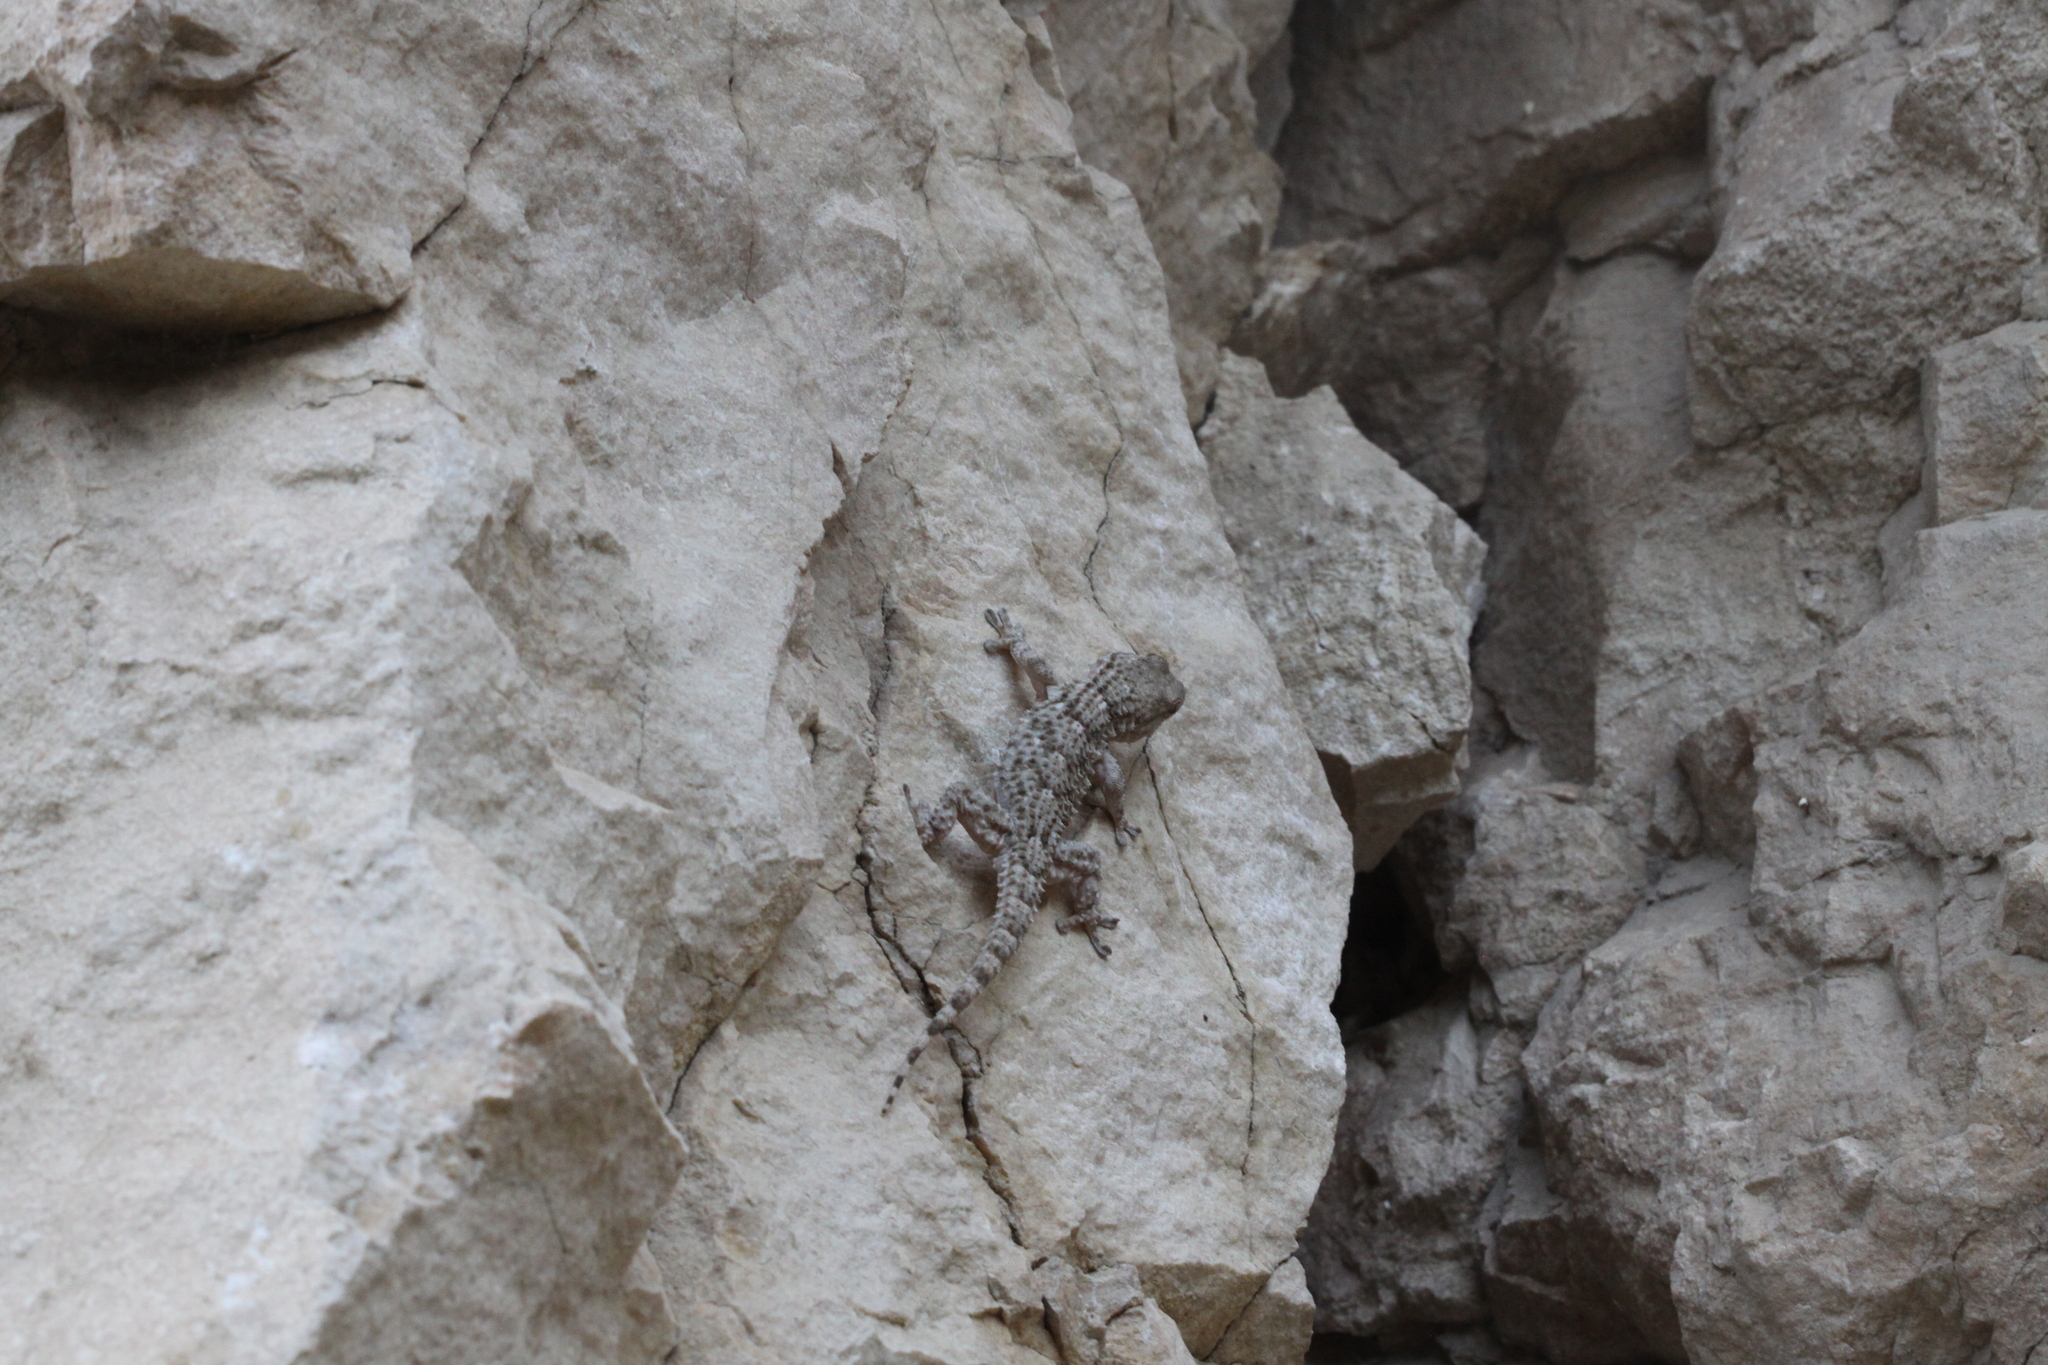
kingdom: Animalia
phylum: Chordata
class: Squamata
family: Phyllodactylidae
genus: Tarentola
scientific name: Tarentola mauritanica
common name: Moorish gecko
